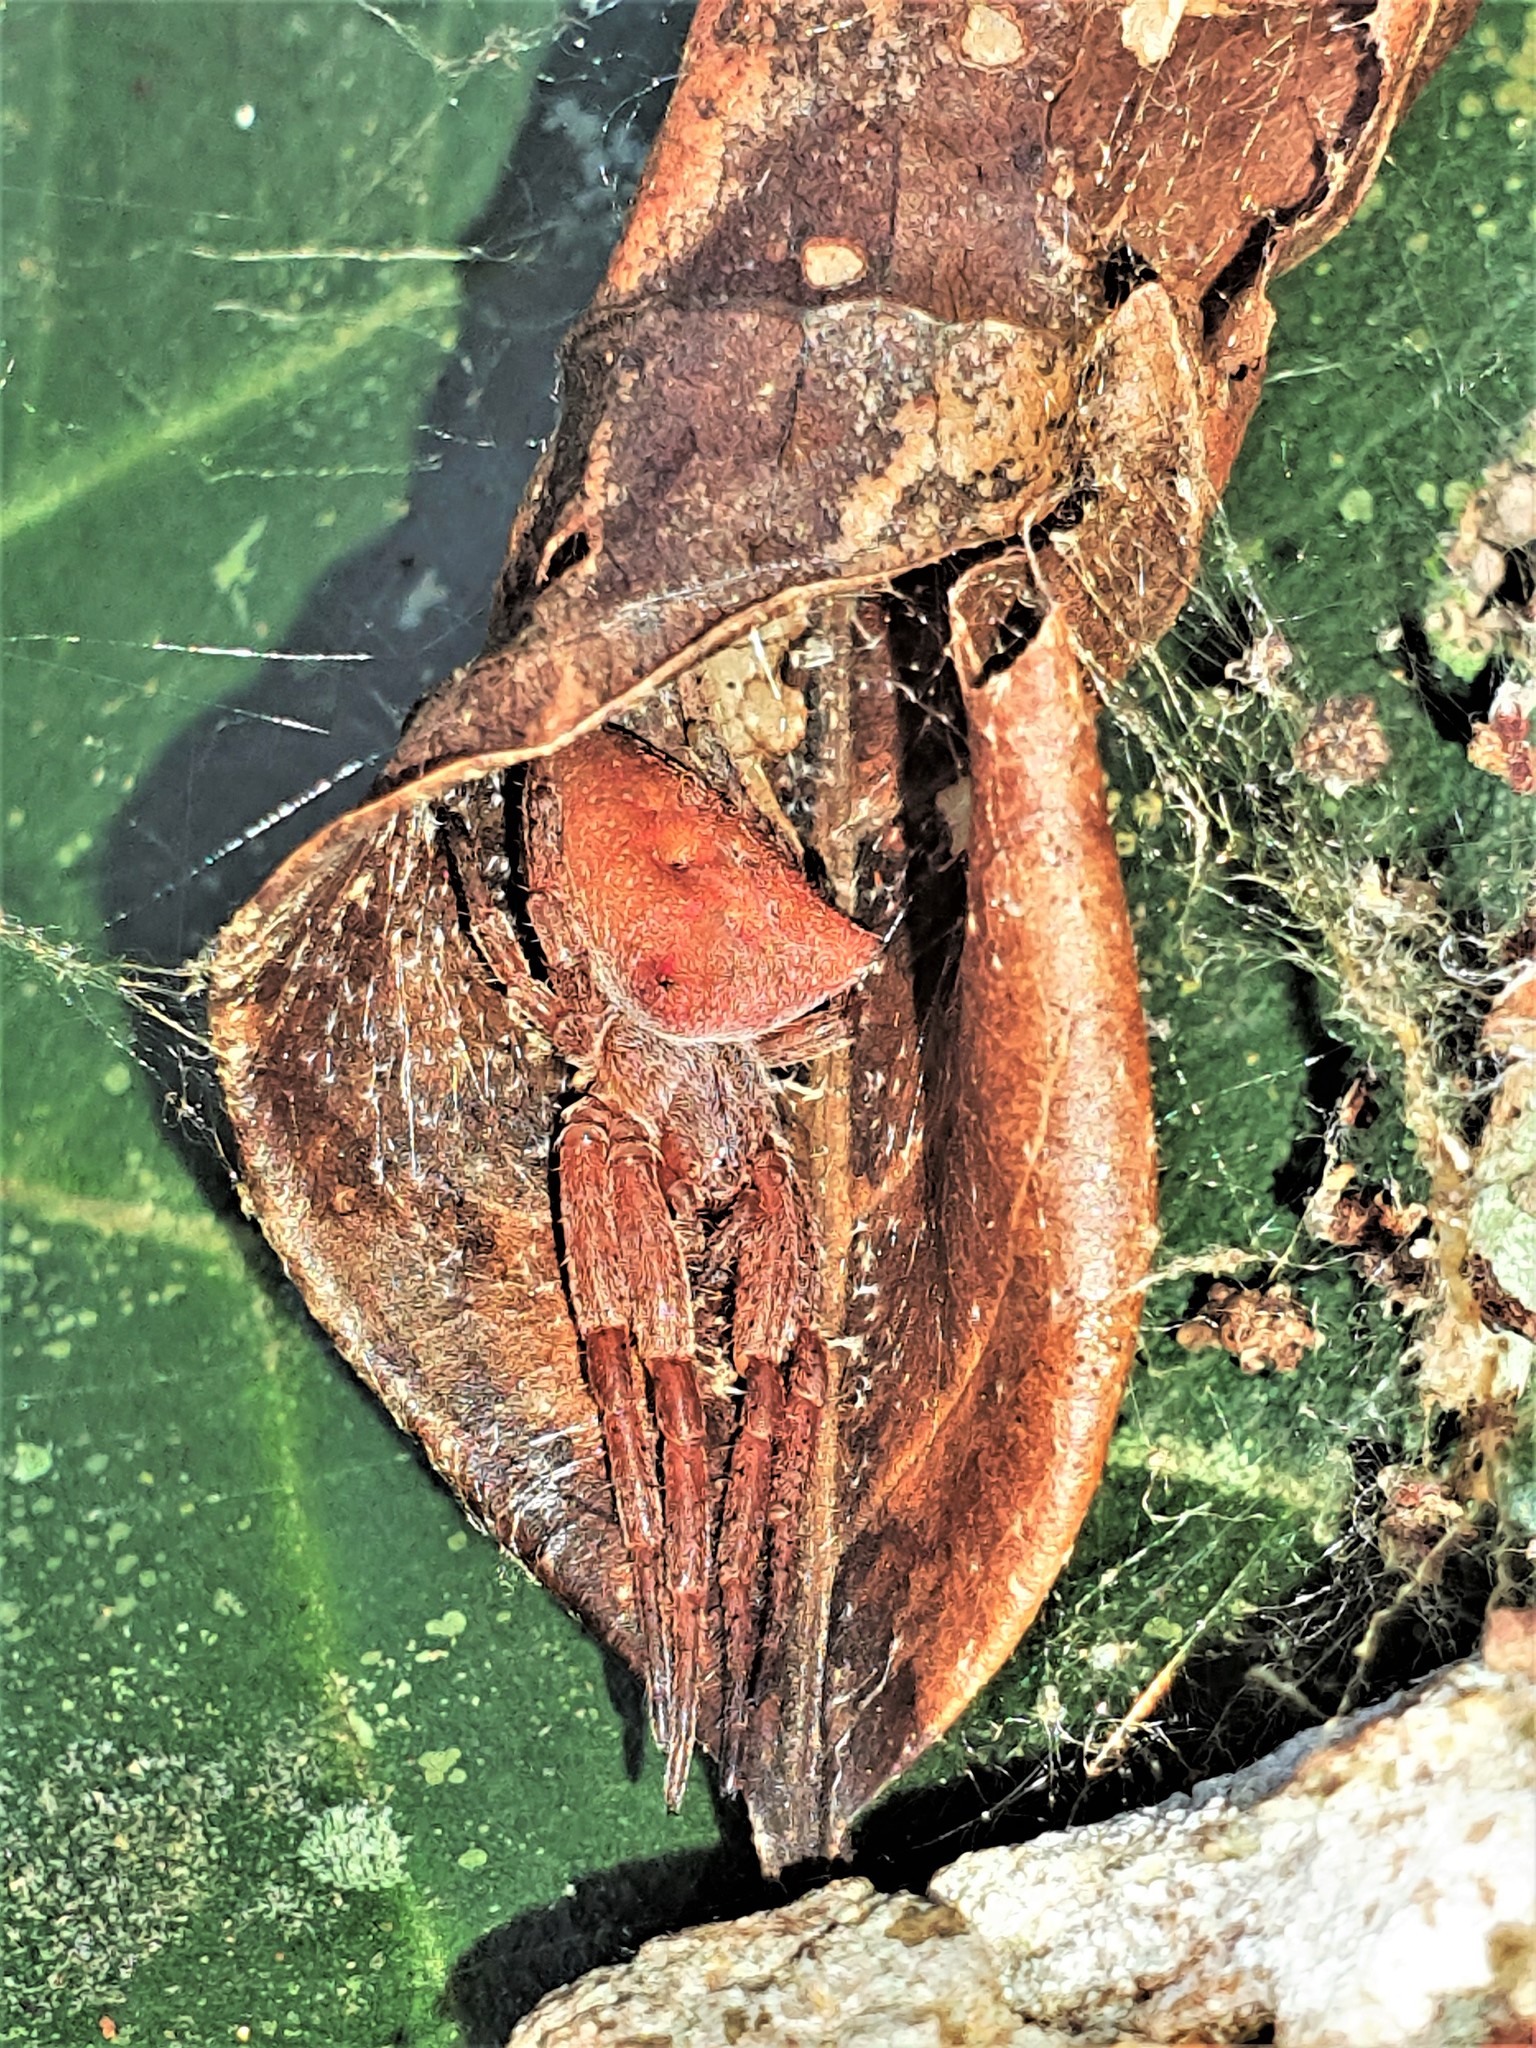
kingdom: Animalia
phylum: Arthropoda
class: Arachnida
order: Araneae
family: Araneidae
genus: Kapogea
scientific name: Kapogea
